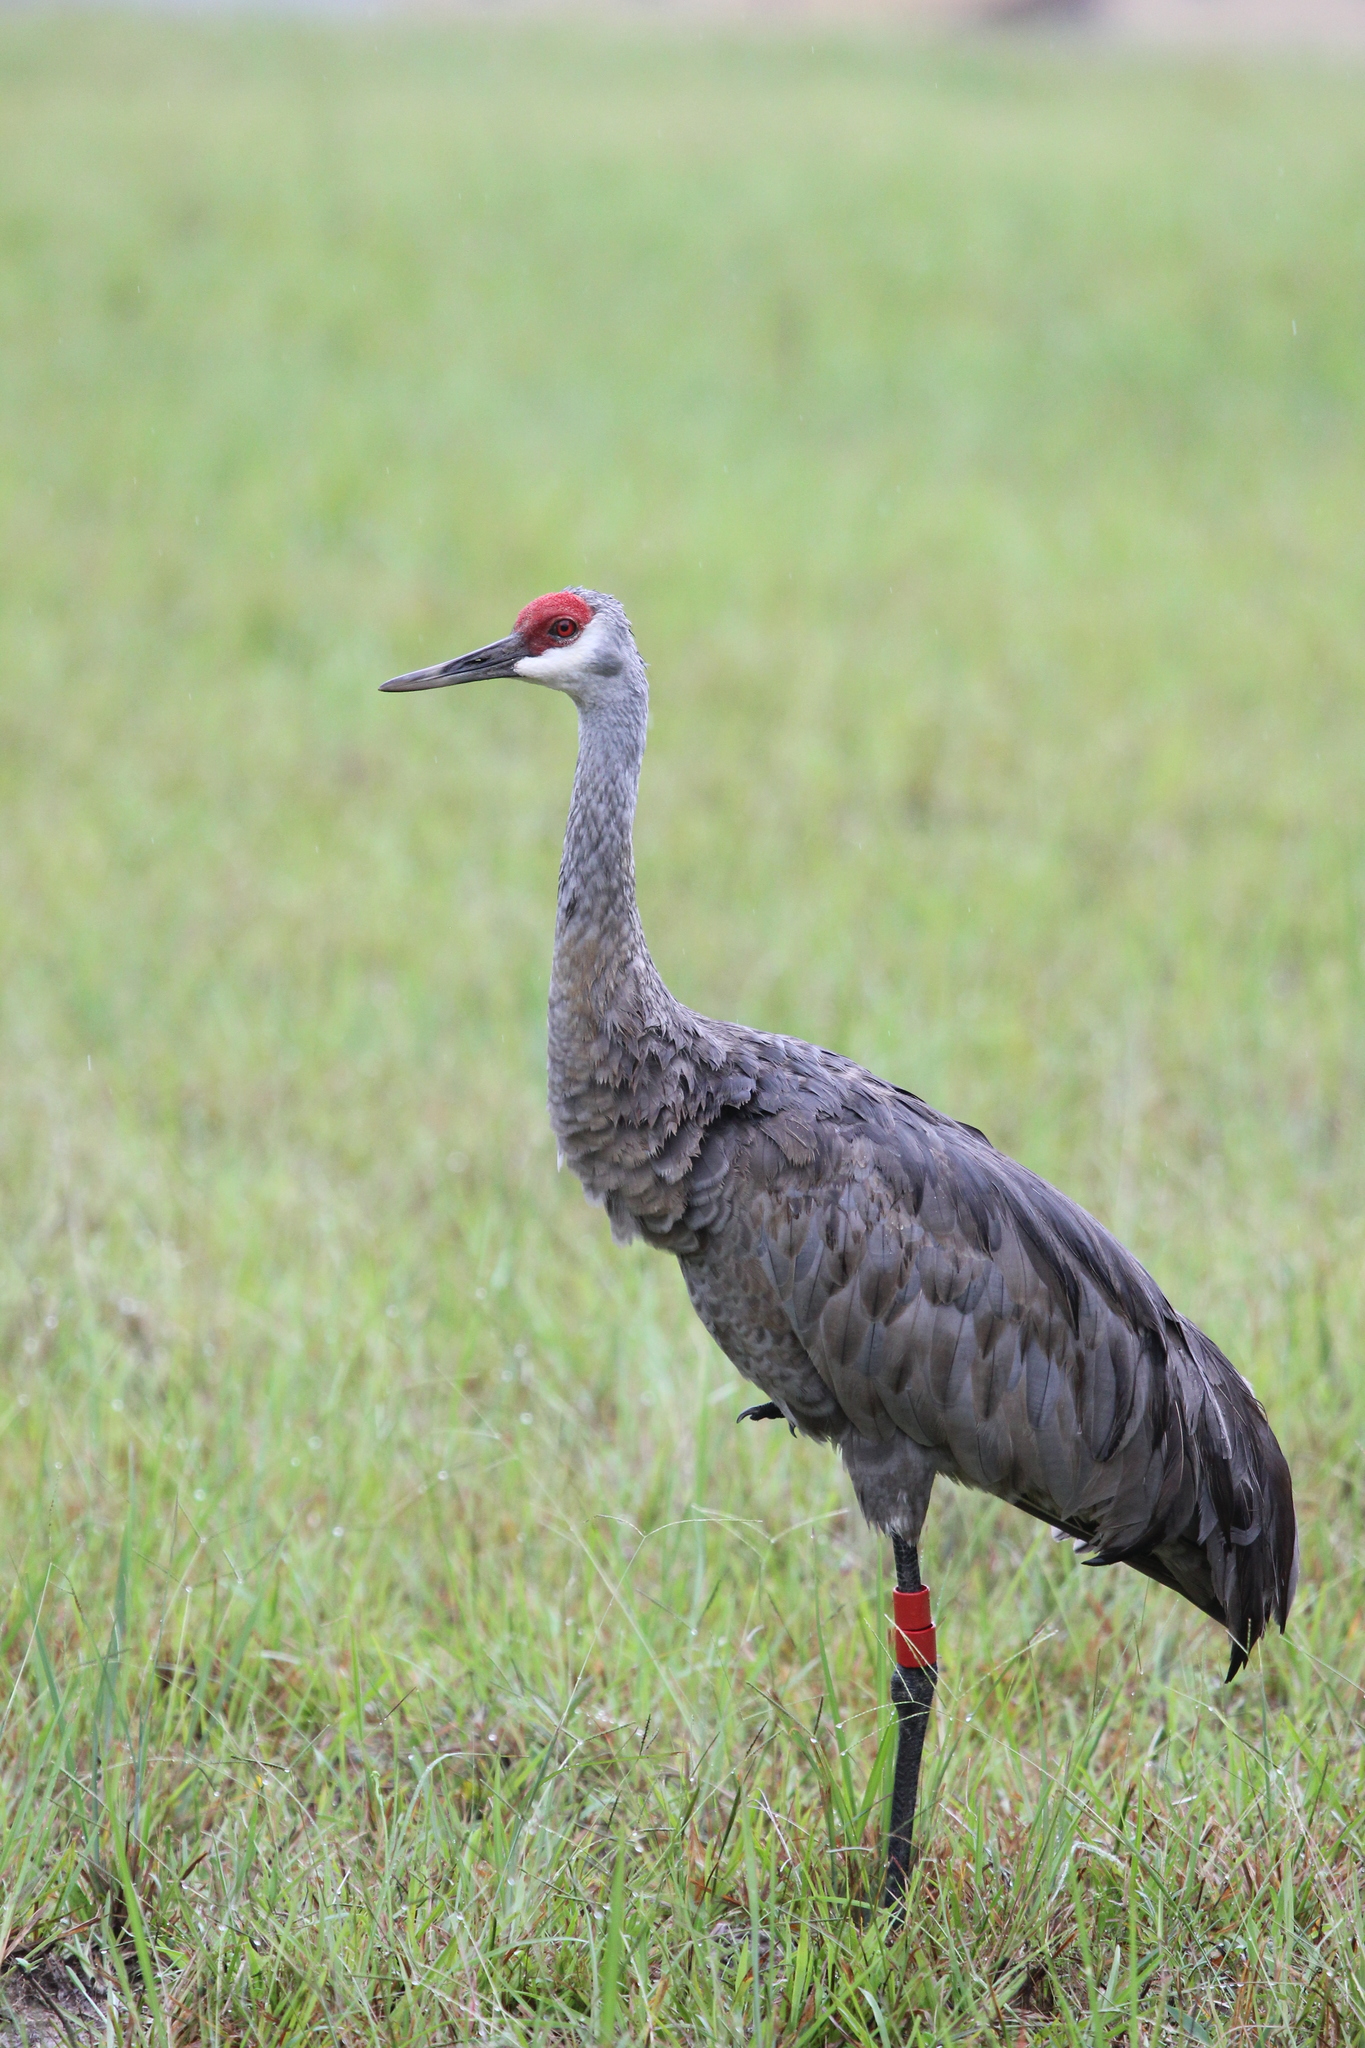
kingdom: Animalia
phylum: Chordata
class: Aves
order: Gruiformes
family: Gruidae
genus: Grus
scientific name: Grus canadensis
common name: Sandhill crane
